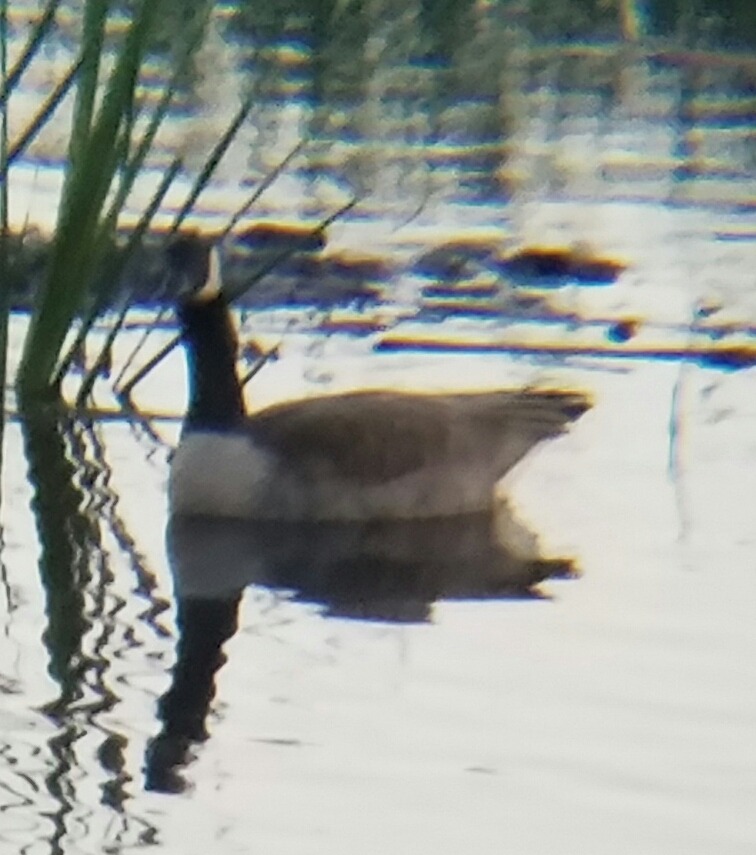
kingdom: Animalia
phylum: Chordata
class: Aves
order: Anseriformes
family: Anatidae
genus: Branta
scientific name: Branta canadensis
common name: Canada goose
